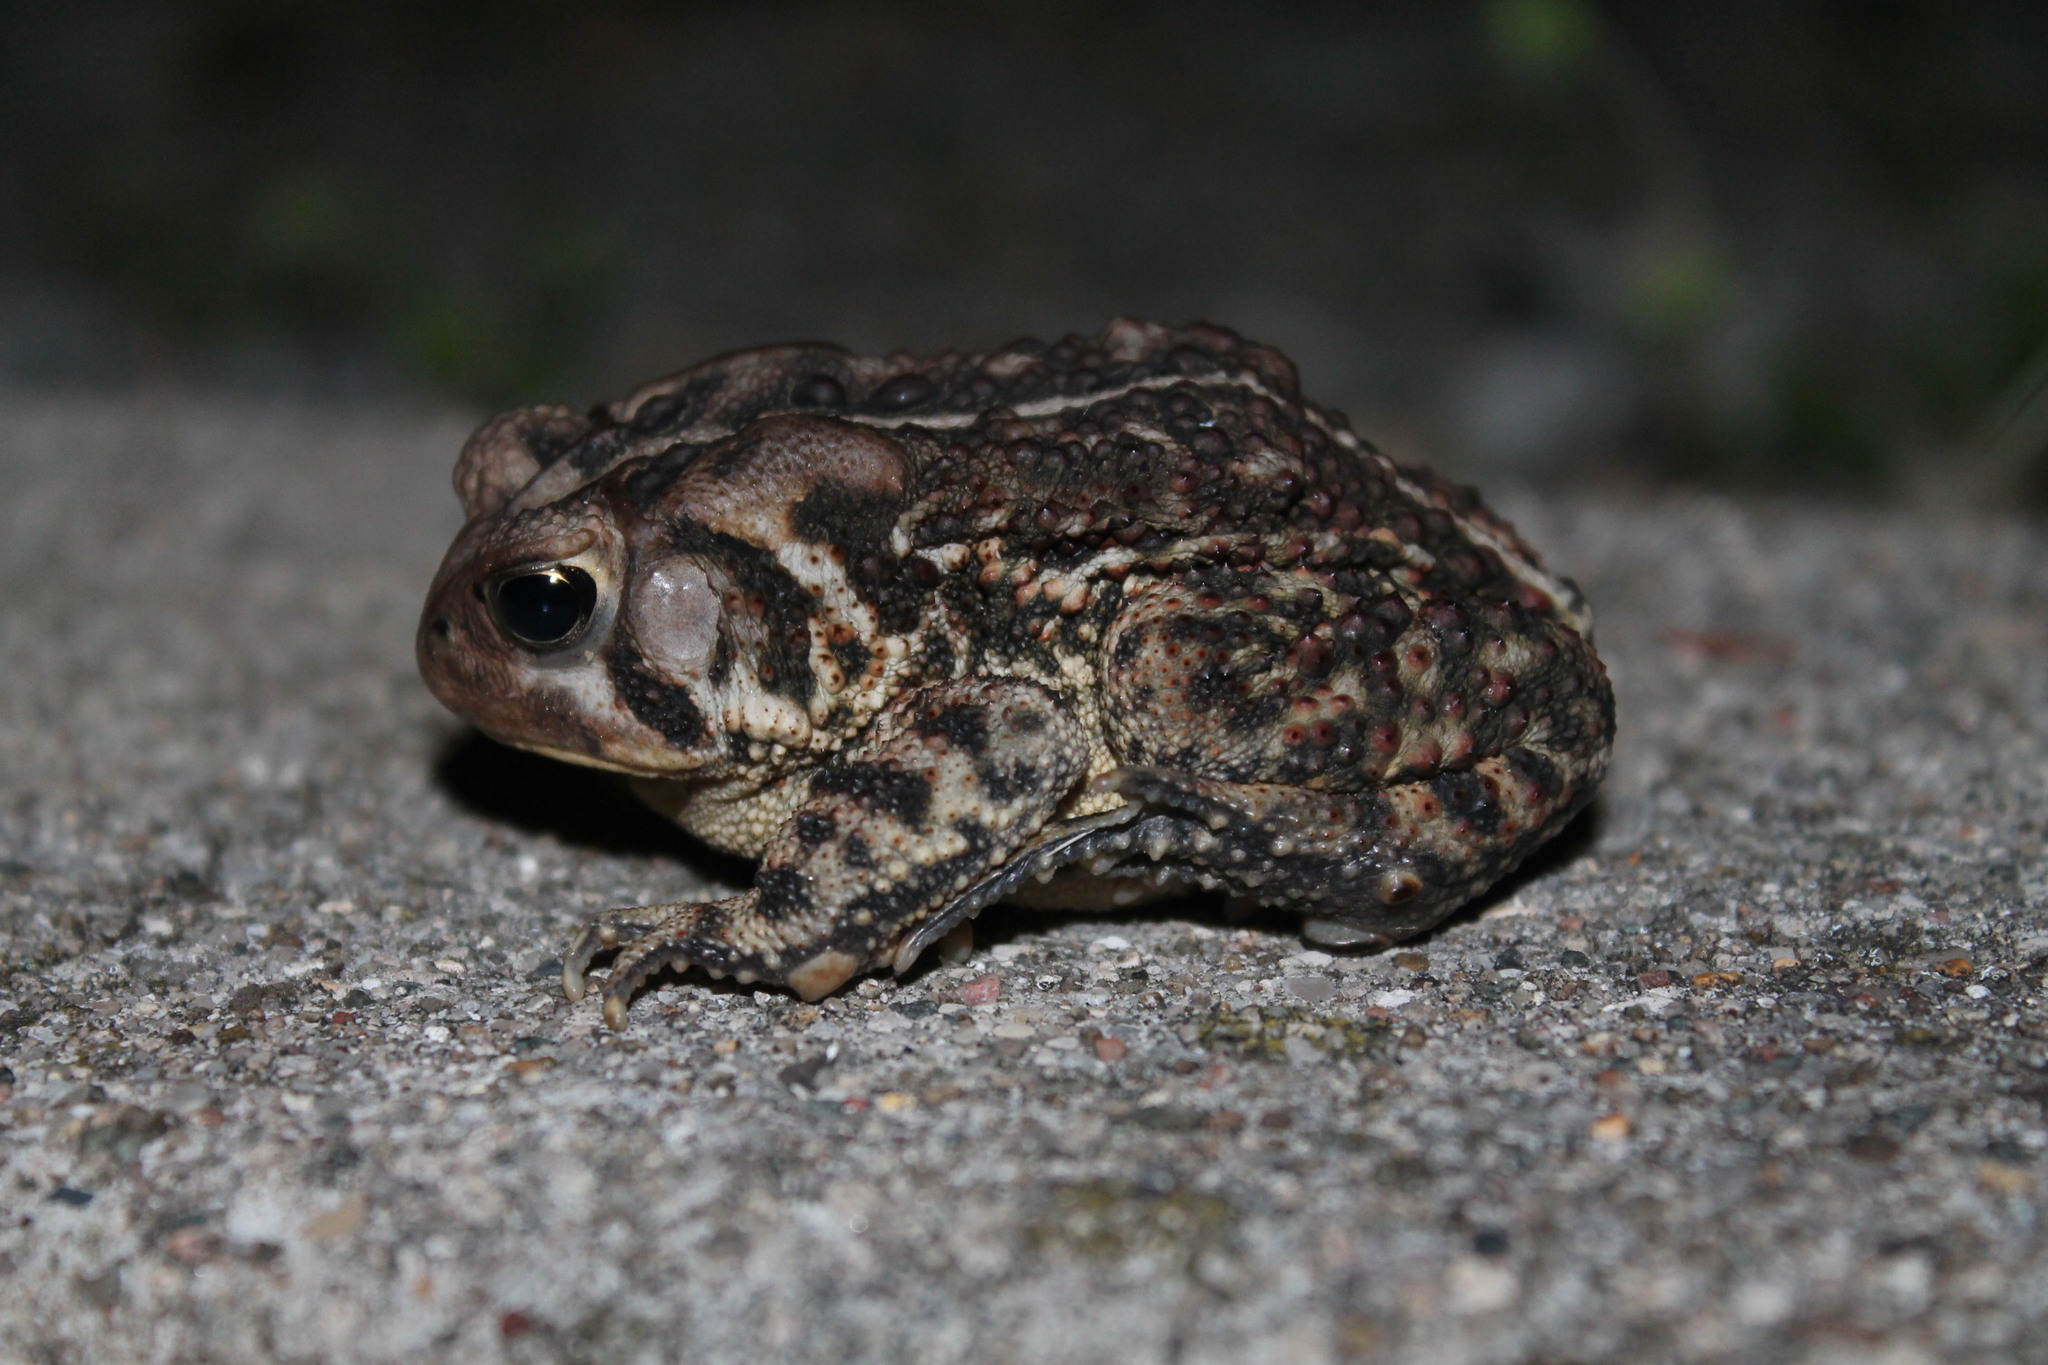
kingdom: Animalia
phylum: Chordata
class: Amphibia
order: Anura
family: Bufonidae
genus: Anaxyrus
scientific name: Anaxyrus americanus
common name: American toad
